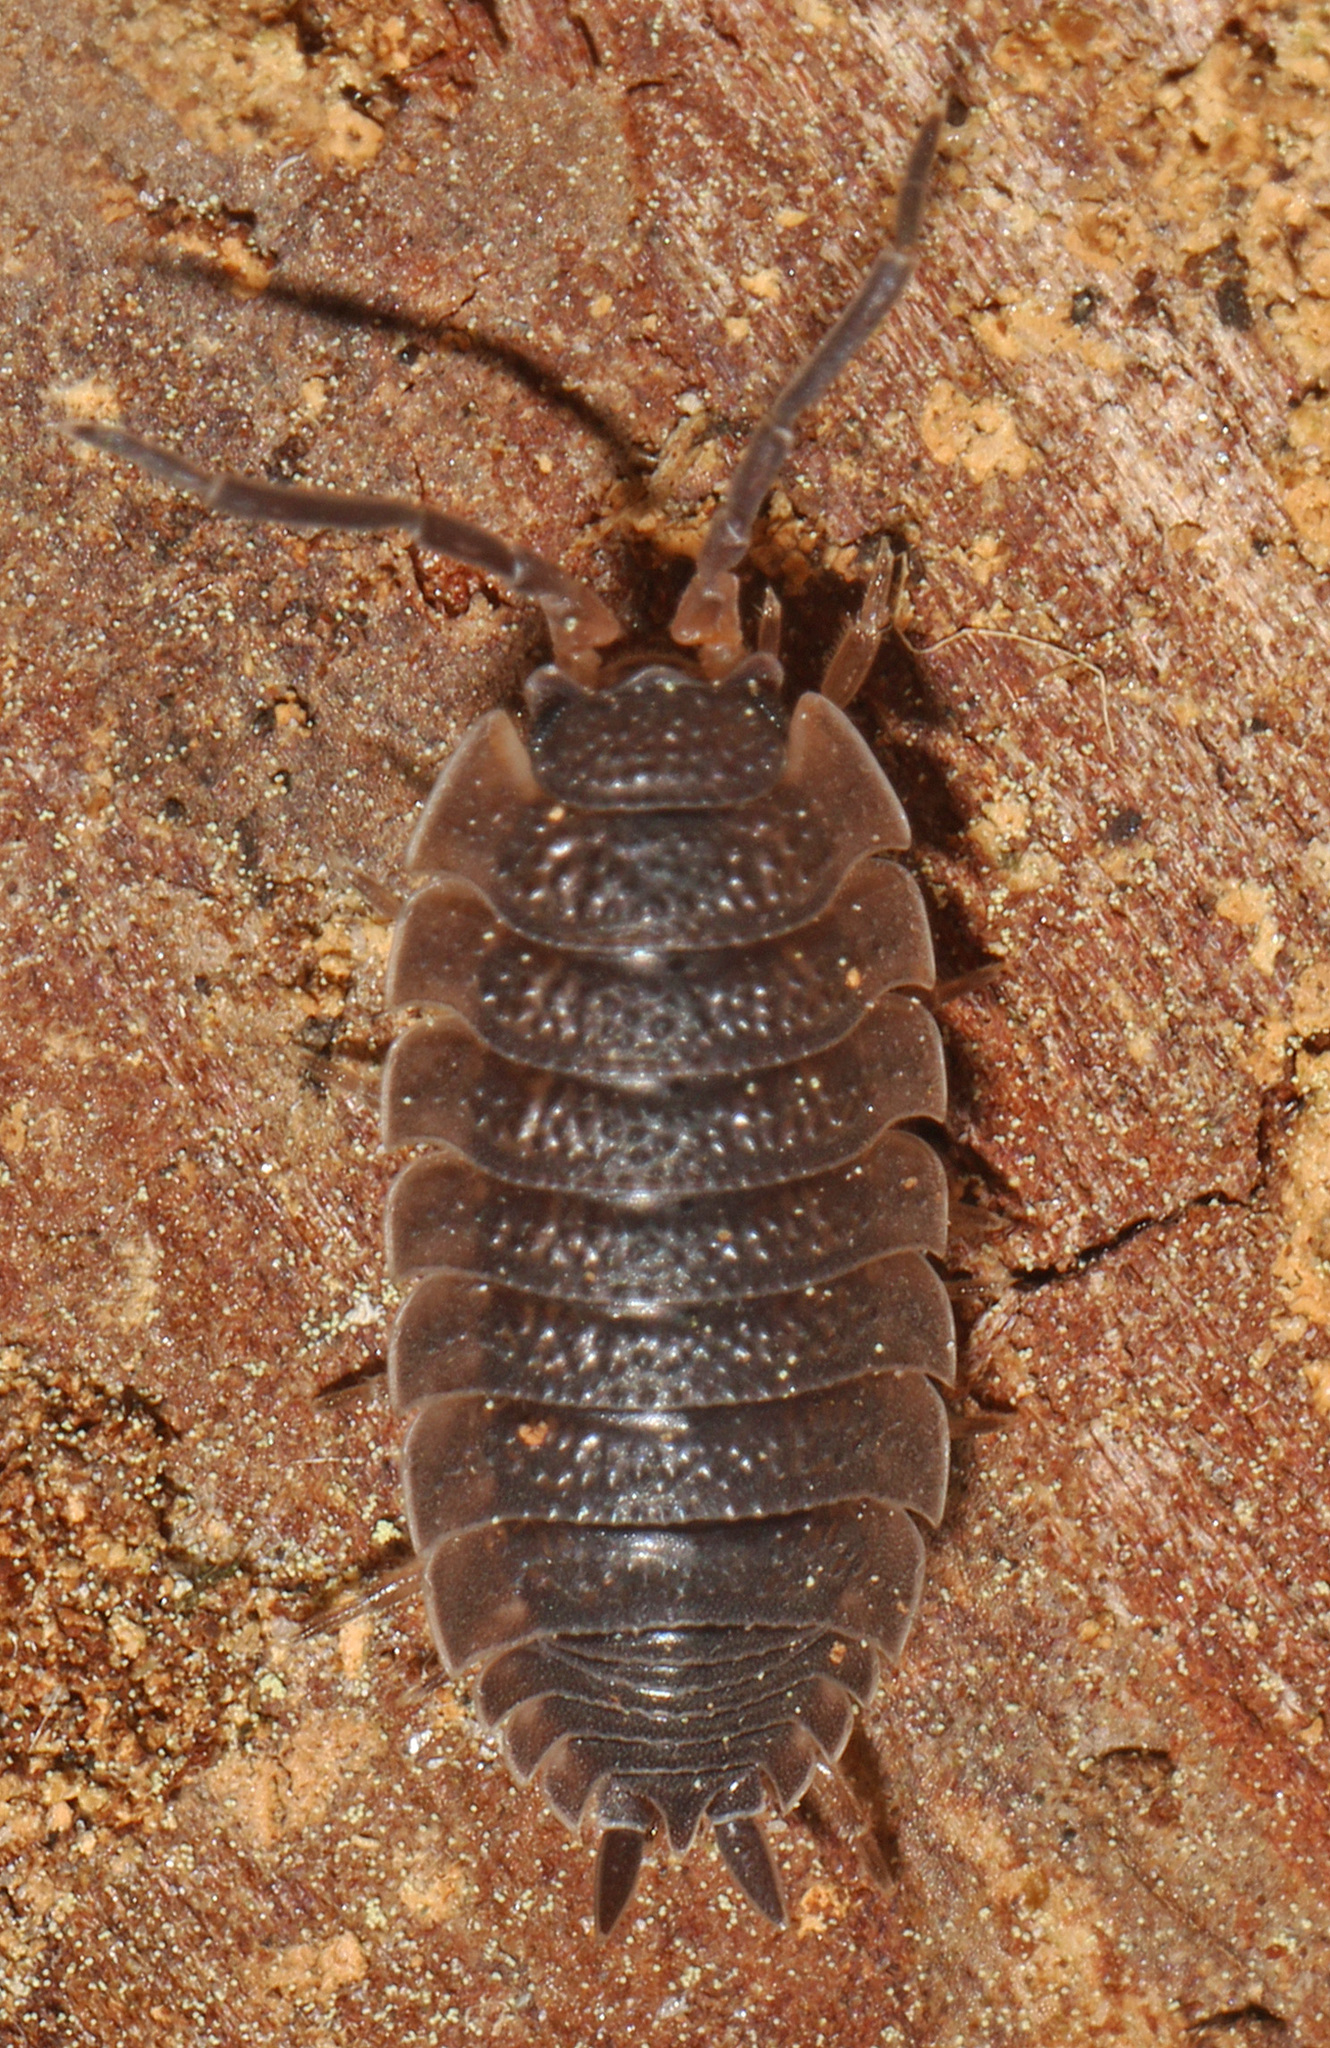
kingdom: Animalia
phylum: Arthropoda
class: Malacostraca
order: Isopoda
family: Porcellionidae
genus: Porcellio
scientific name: Porcellio scaber
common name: Common rough woodlouse
